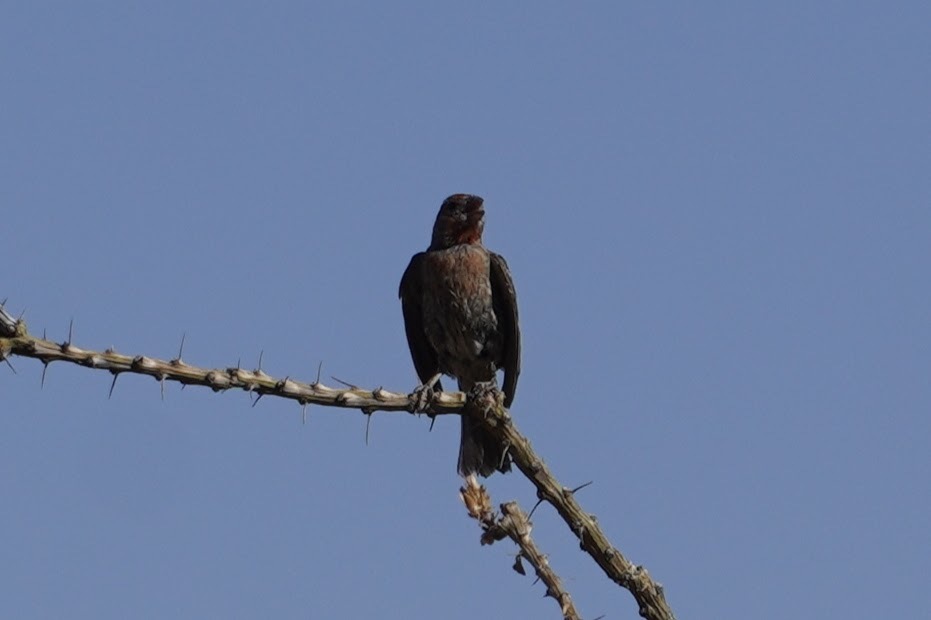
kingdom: Animalia
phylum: Chordata
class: Aves
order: Passeriformes
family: Fringillidae
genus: Haemorhous
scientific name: Haemorhous mexicanus
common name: House finch
